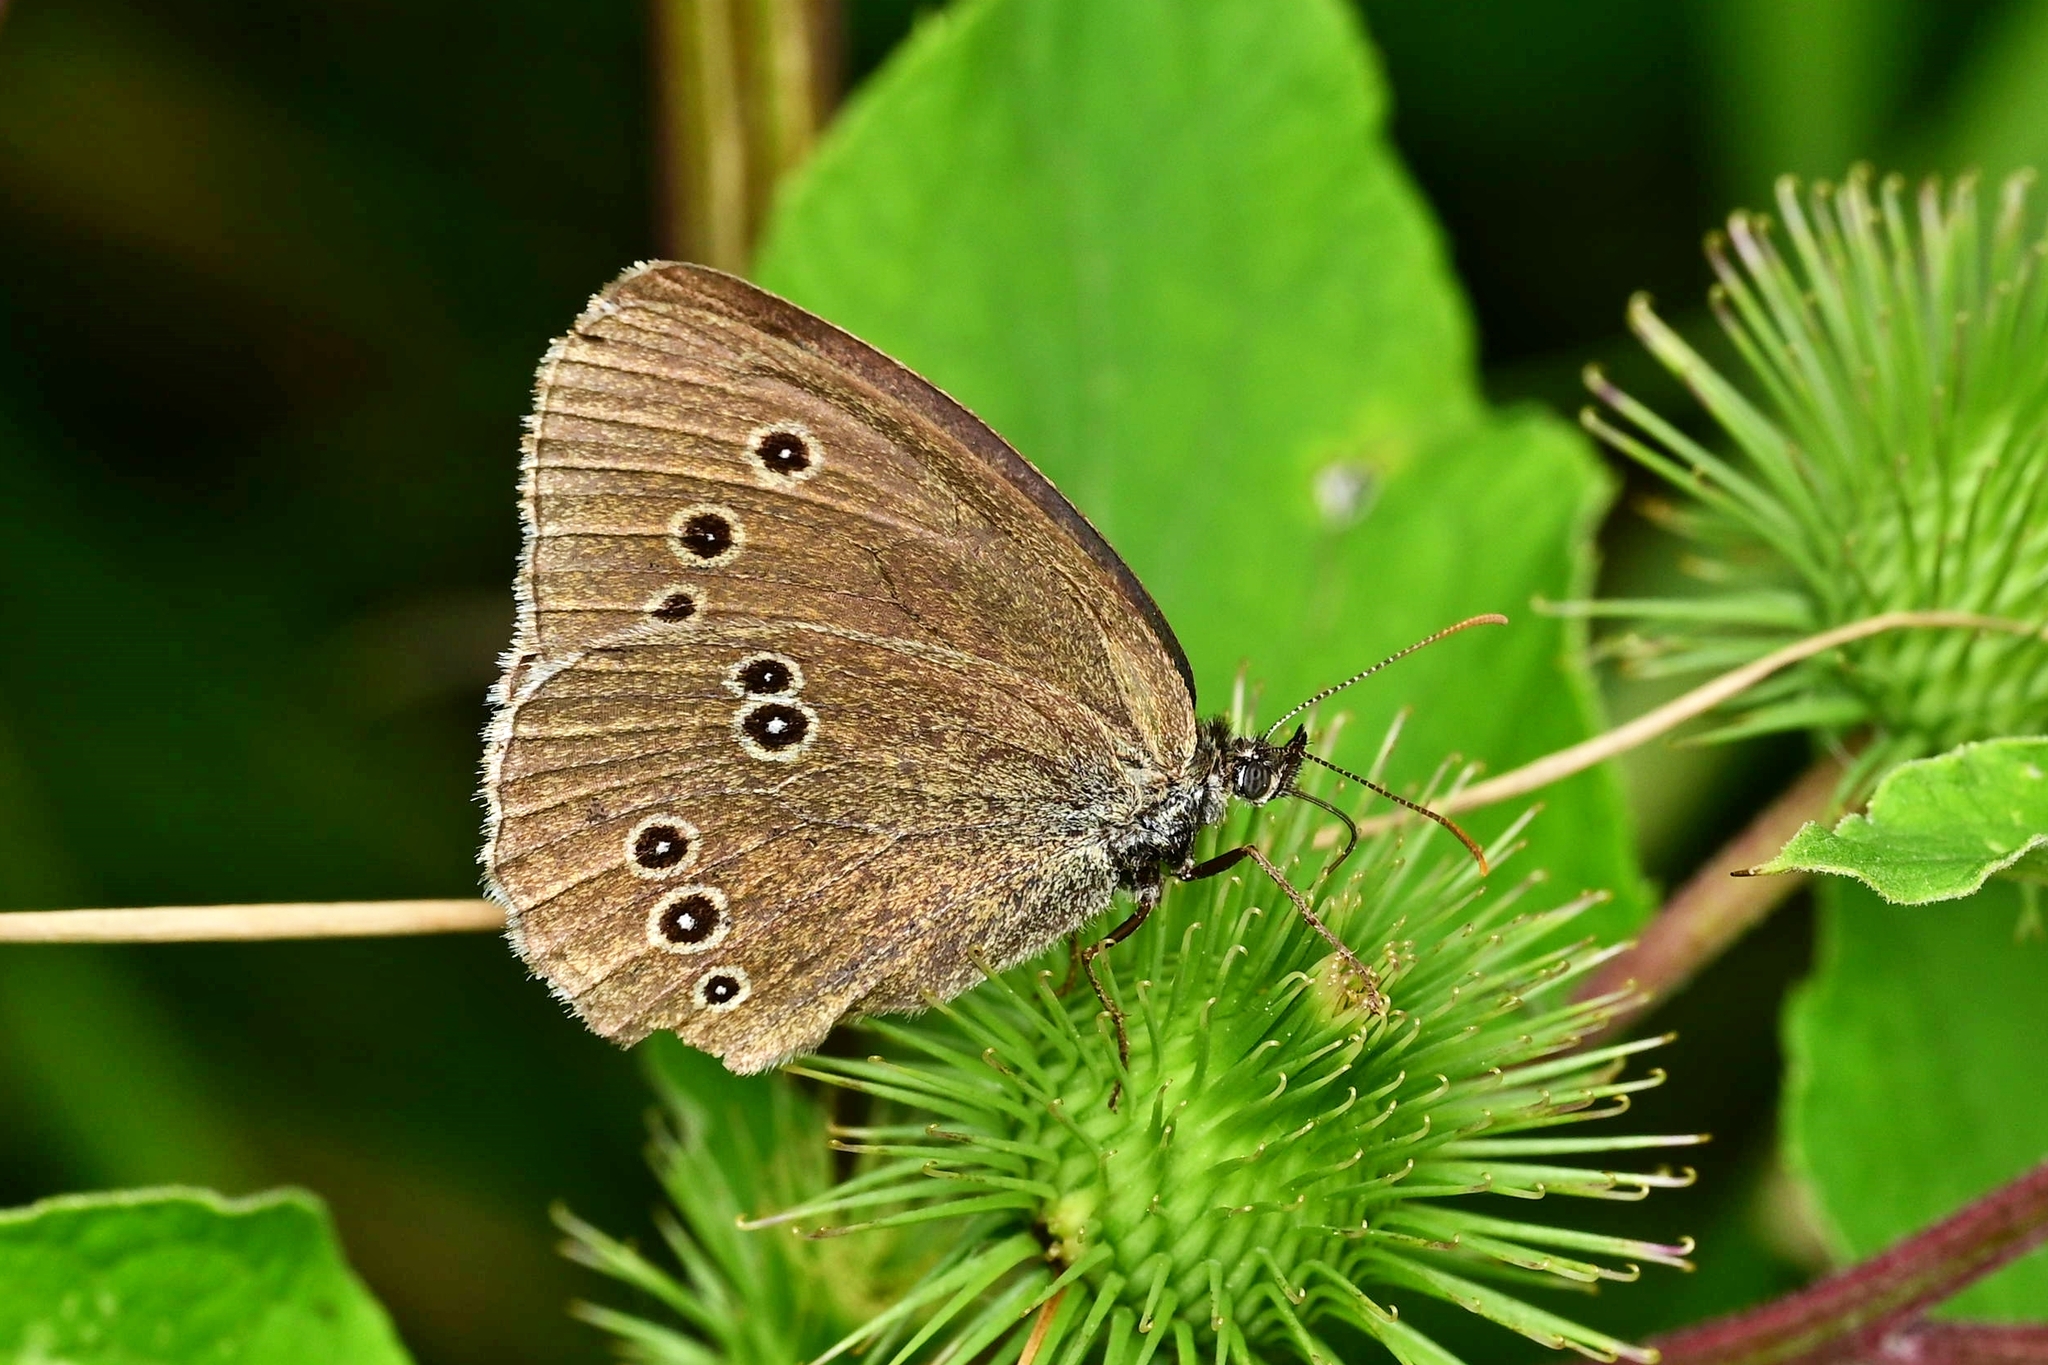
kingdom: Animalia
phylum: Arthropoda
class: Insecta
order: Lepidoptera
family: Nymphalidae
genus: Aphantopus
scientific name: Aphantopus hyperantus
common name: Ringlet
